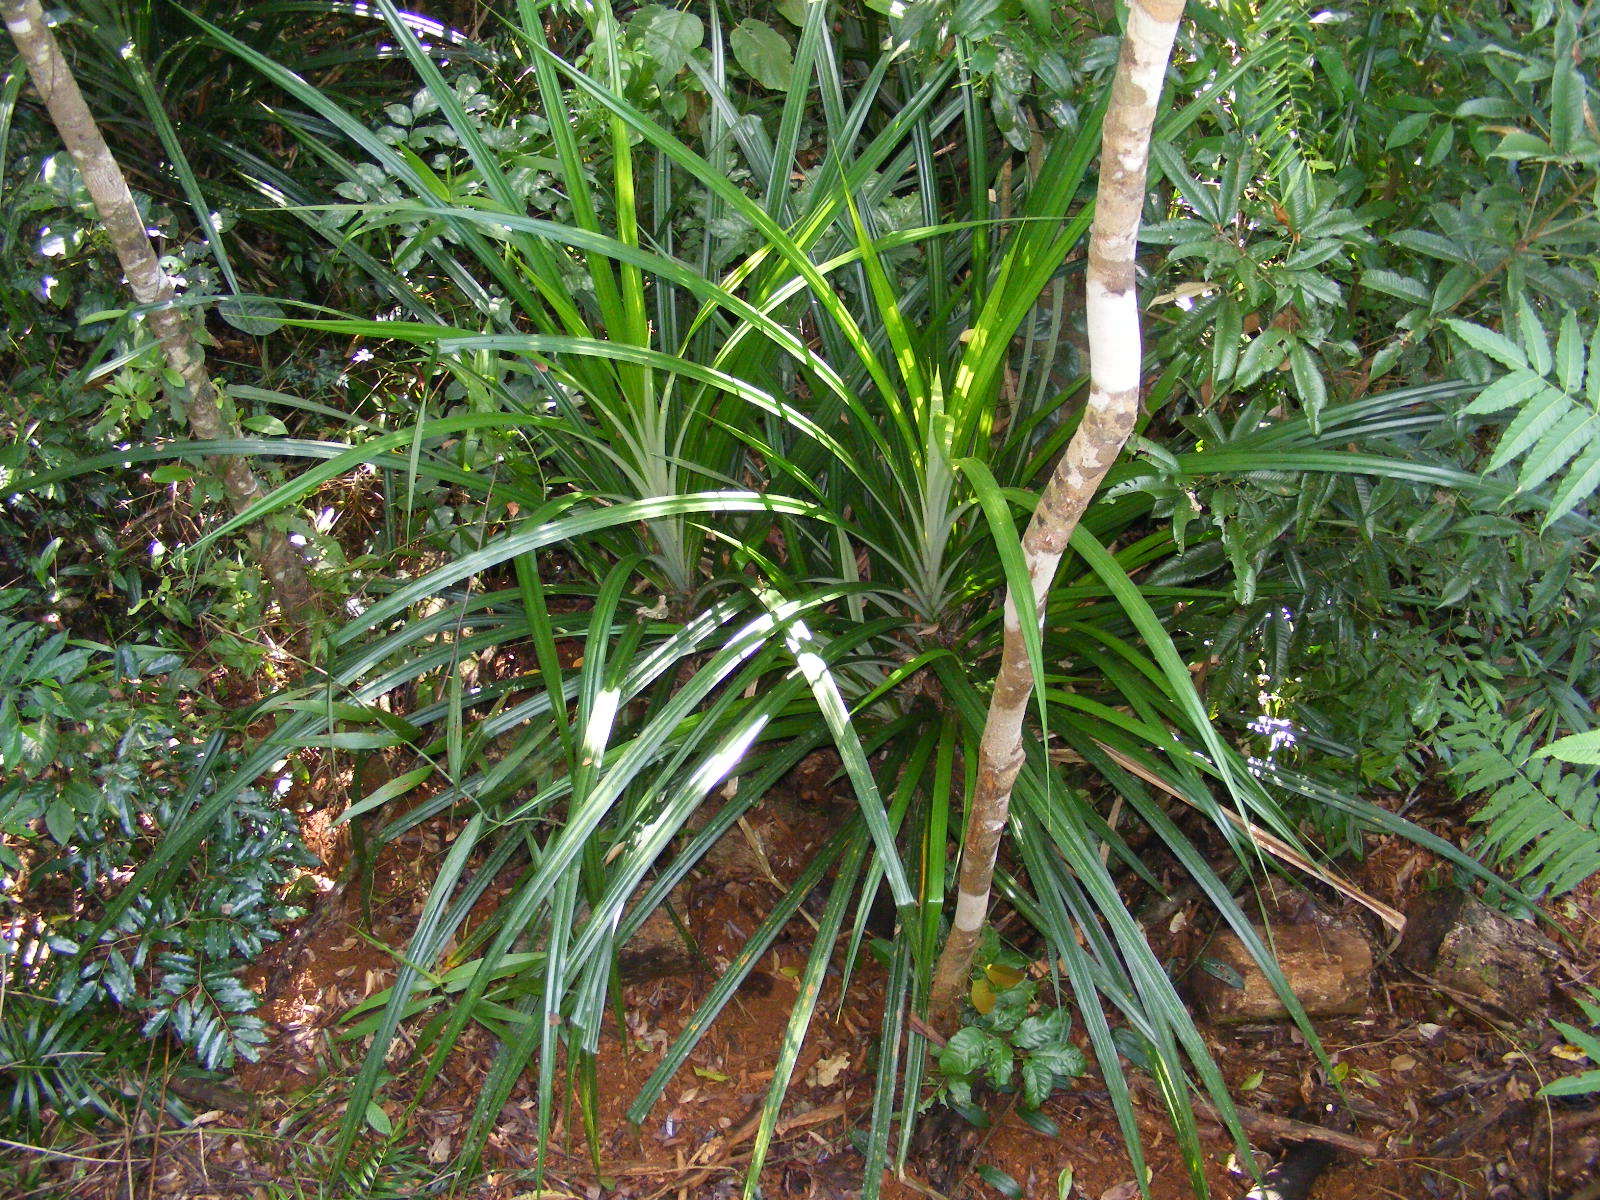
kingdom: Plantae
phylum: Tracheophyta
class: Liliopsida
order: Pandanales
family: Pandanaceae
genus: Freycinetia
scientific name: Freycinetia excelsa
